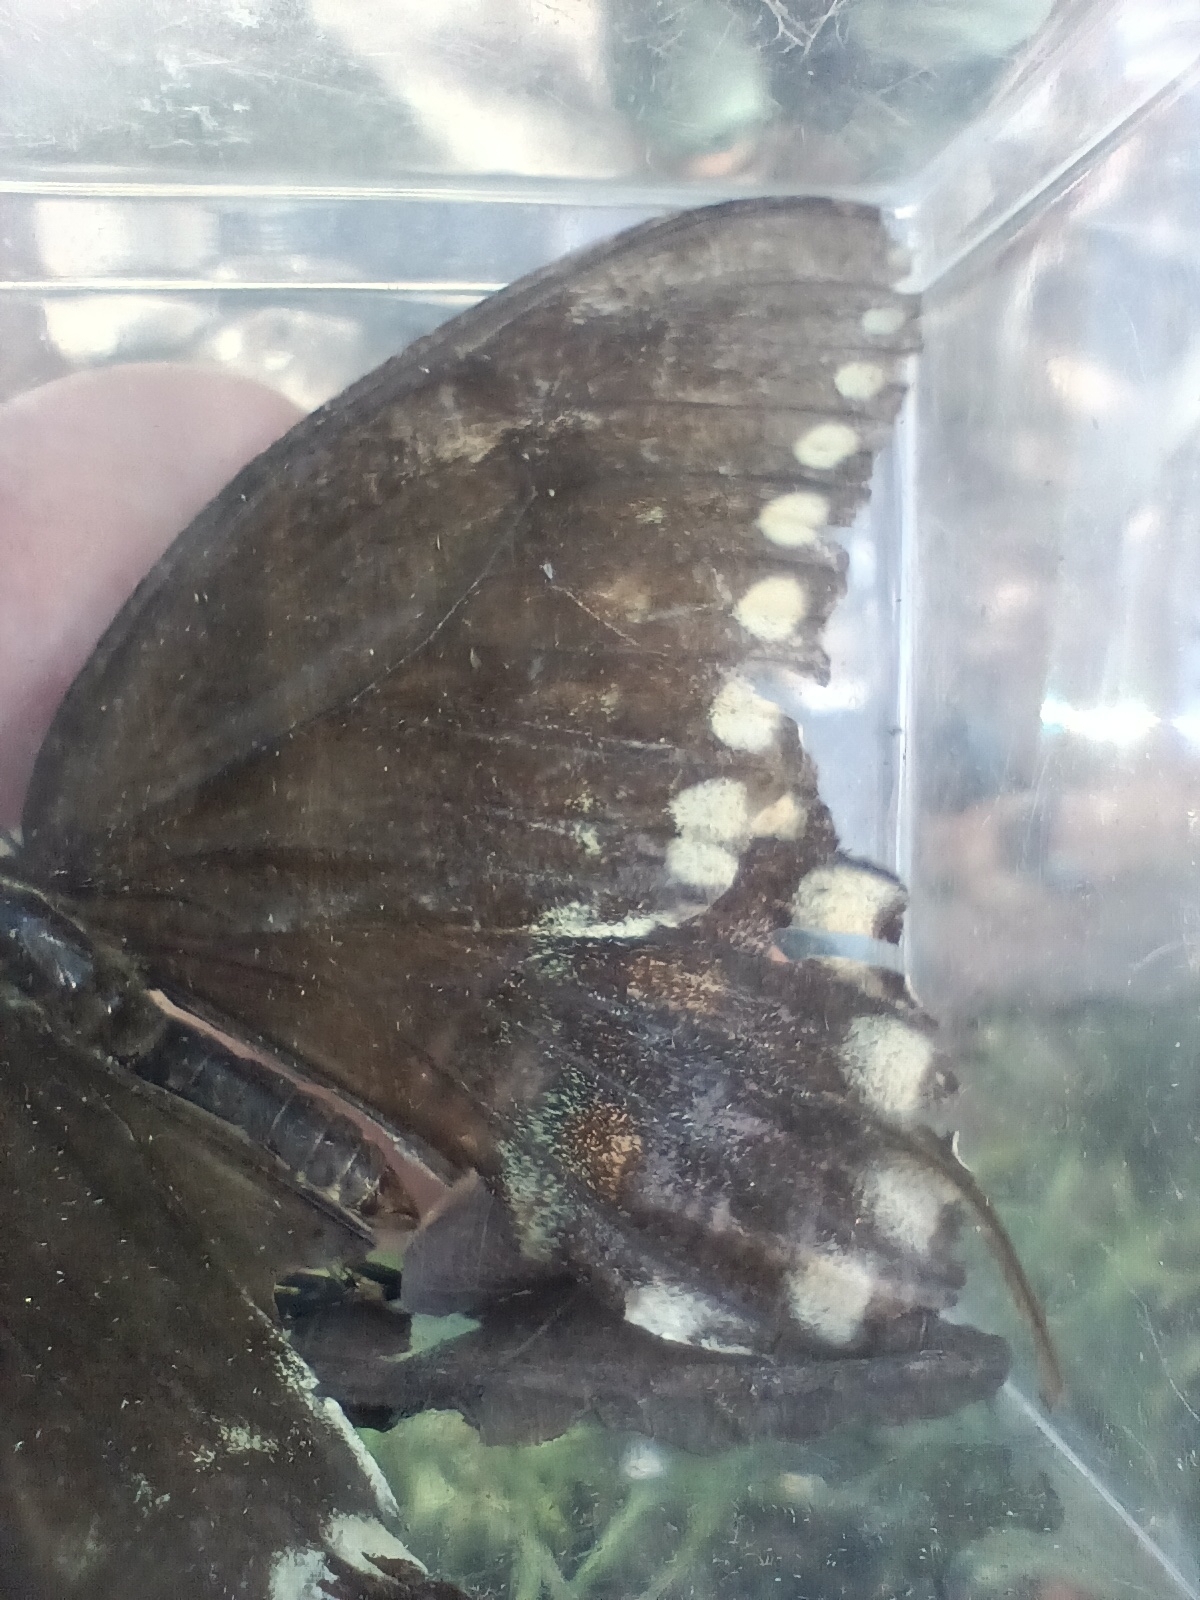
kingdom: Animalia
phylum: Arthropoda
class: Insecta
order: Lepidoptera
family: Papilionidae
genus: Papilio
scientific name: Papilio troilus
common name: Spicebush swallowtail
